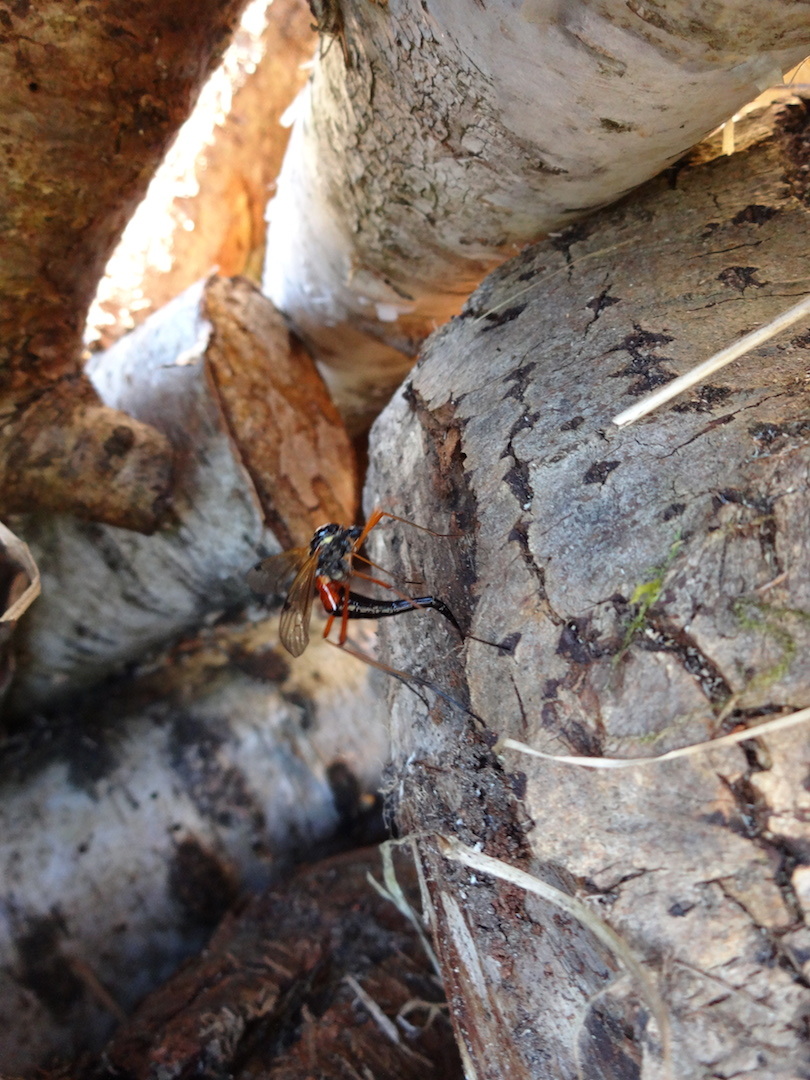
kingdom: Animalia
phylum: Arthropoda
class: Insecta
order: Diptera
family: Tipulidae
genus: Tanyptera
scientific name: Tanyptera atrata
